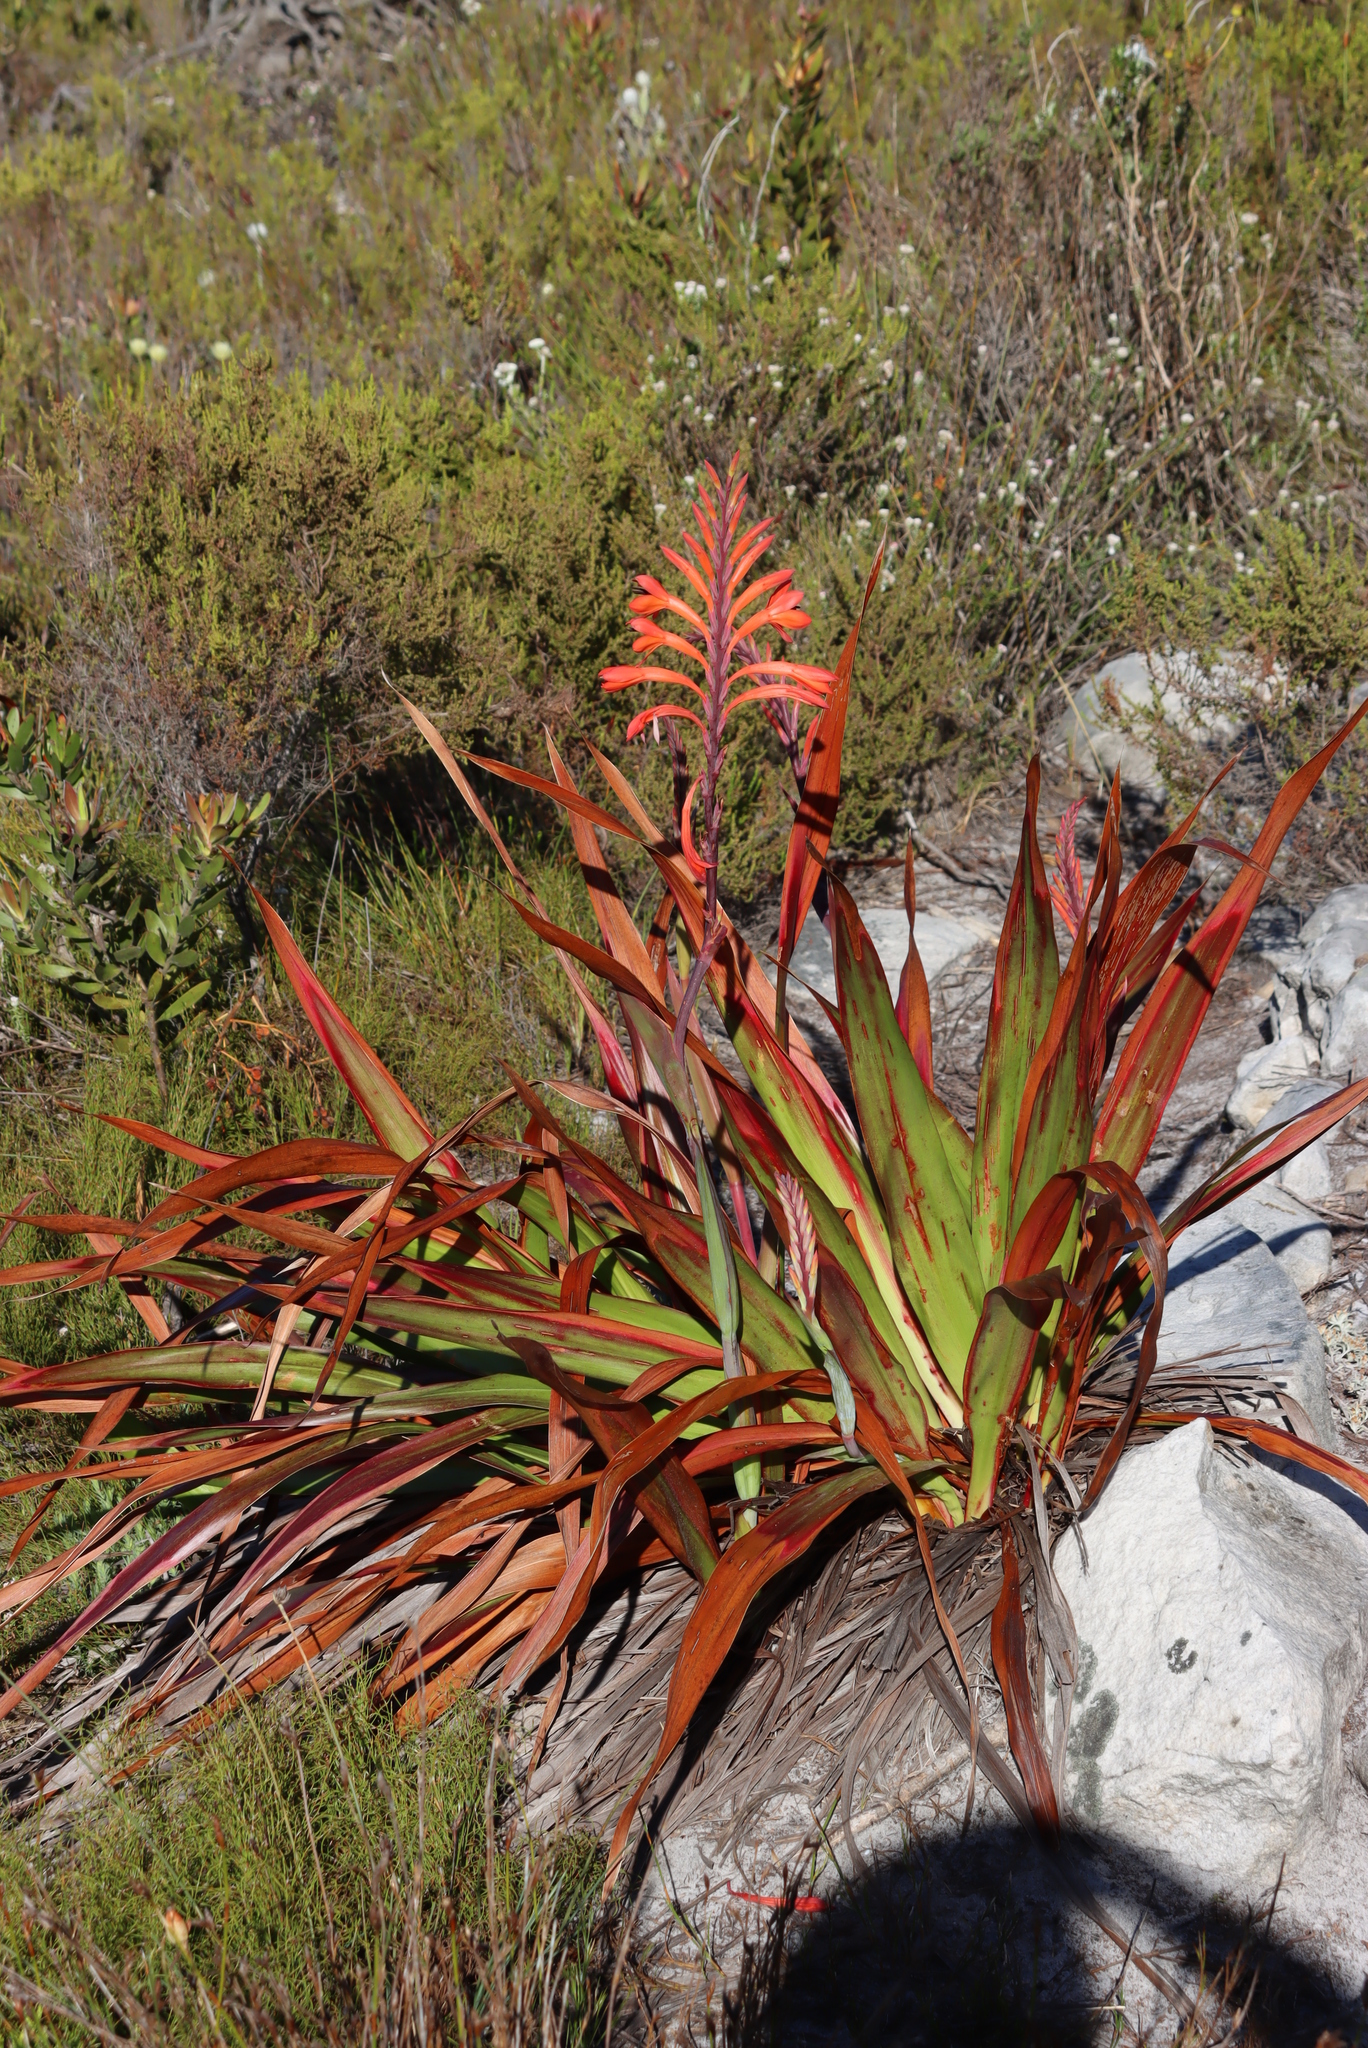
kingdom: Plantae
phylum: Tracheophyta
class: Liliopsida
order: Asparagales
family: Iridaceae
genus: Watsonia
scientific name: Watsonia tabularis
